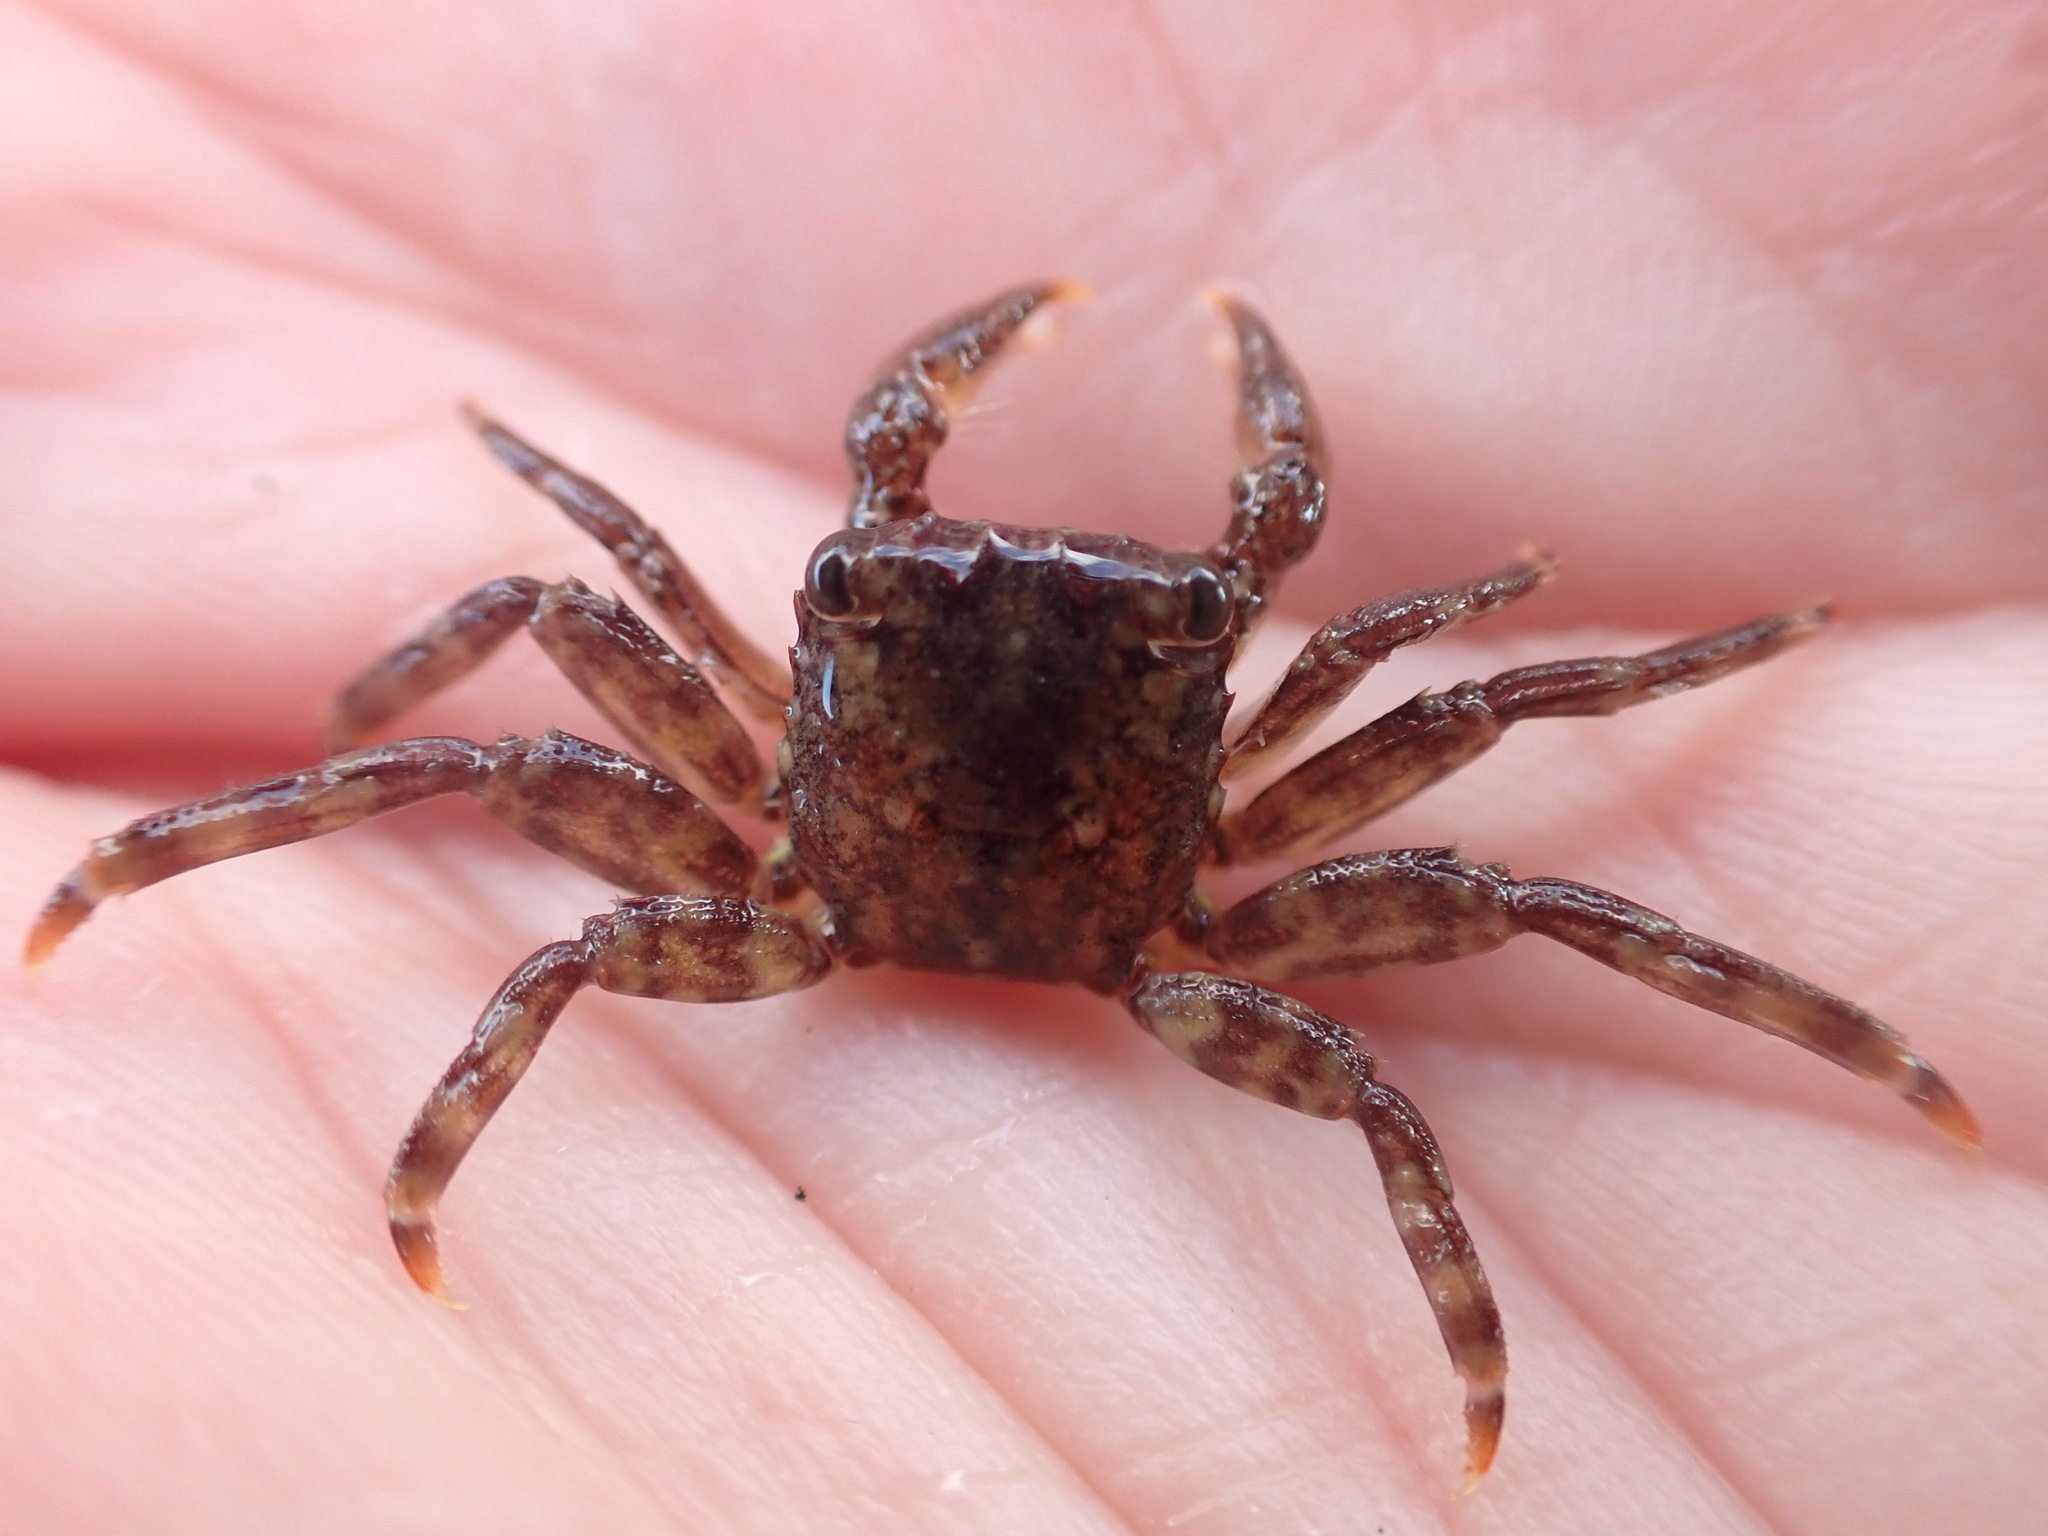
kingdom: Animalia
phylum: Arthropoda
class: Malacostraca
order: Decapoda
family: Plagusiidae
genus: Guinusia
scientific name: Guinusia chabrus
